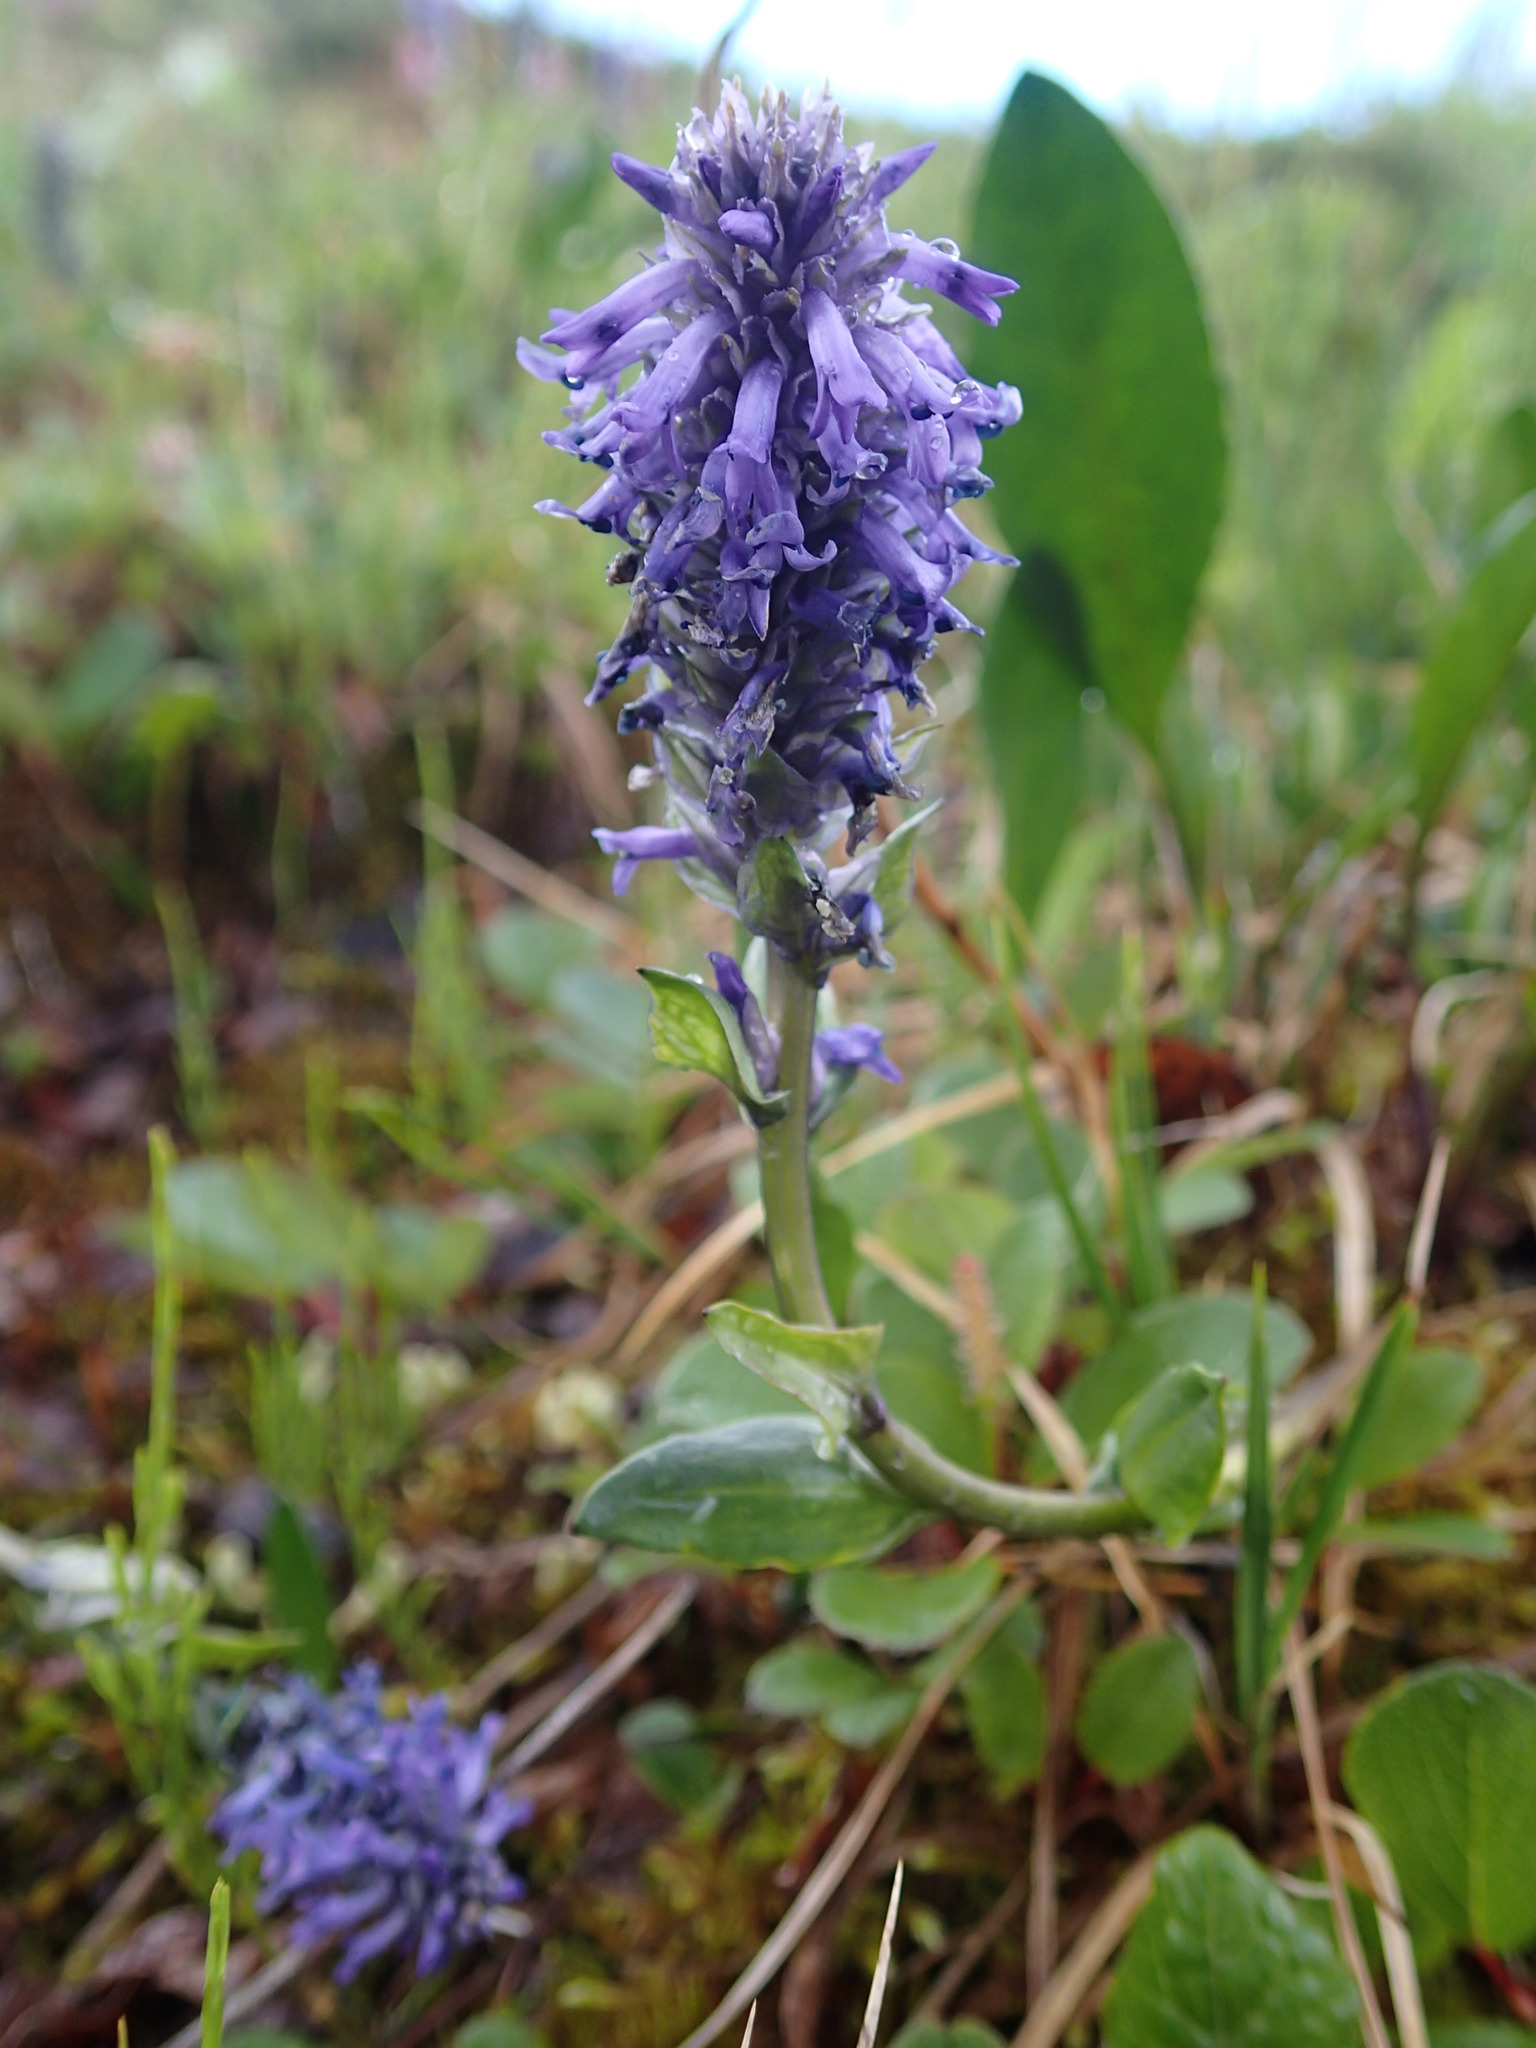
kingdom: Plantae
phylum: Tracheophyta
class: Magnoliopsida
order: Lamiales
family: Plantaginaceae
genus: Lagotis
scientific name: Lagotis glauca
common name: Glaucous weaselsnout
